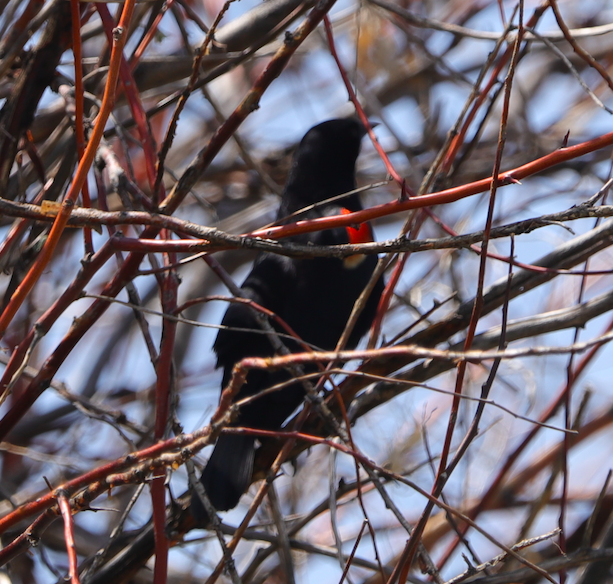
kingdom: Animalia
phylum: Chordata
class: Aves
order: Passeriformes
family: Icteridae
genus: Agelaius
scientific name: Agelaius phoeniceus
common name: Red-winged blackbird
